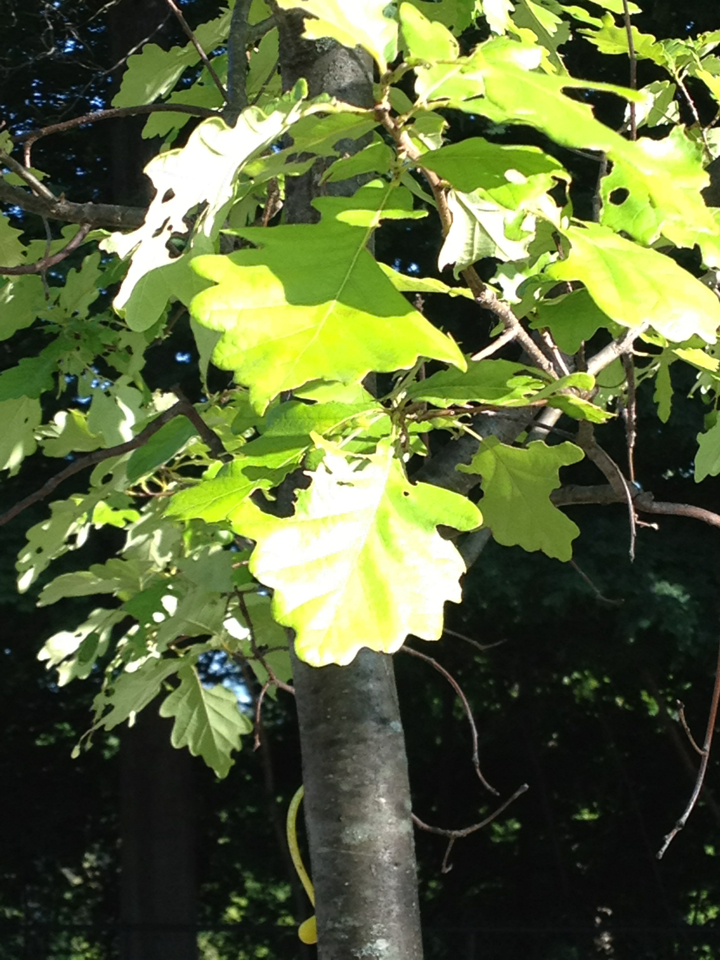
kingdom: Plantae
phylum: Tracheophyta
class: Magnoliopsida
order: Fagales
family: Fagaceae
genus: Quercus
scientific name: Quercus bicolor
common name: Swamp white oak
